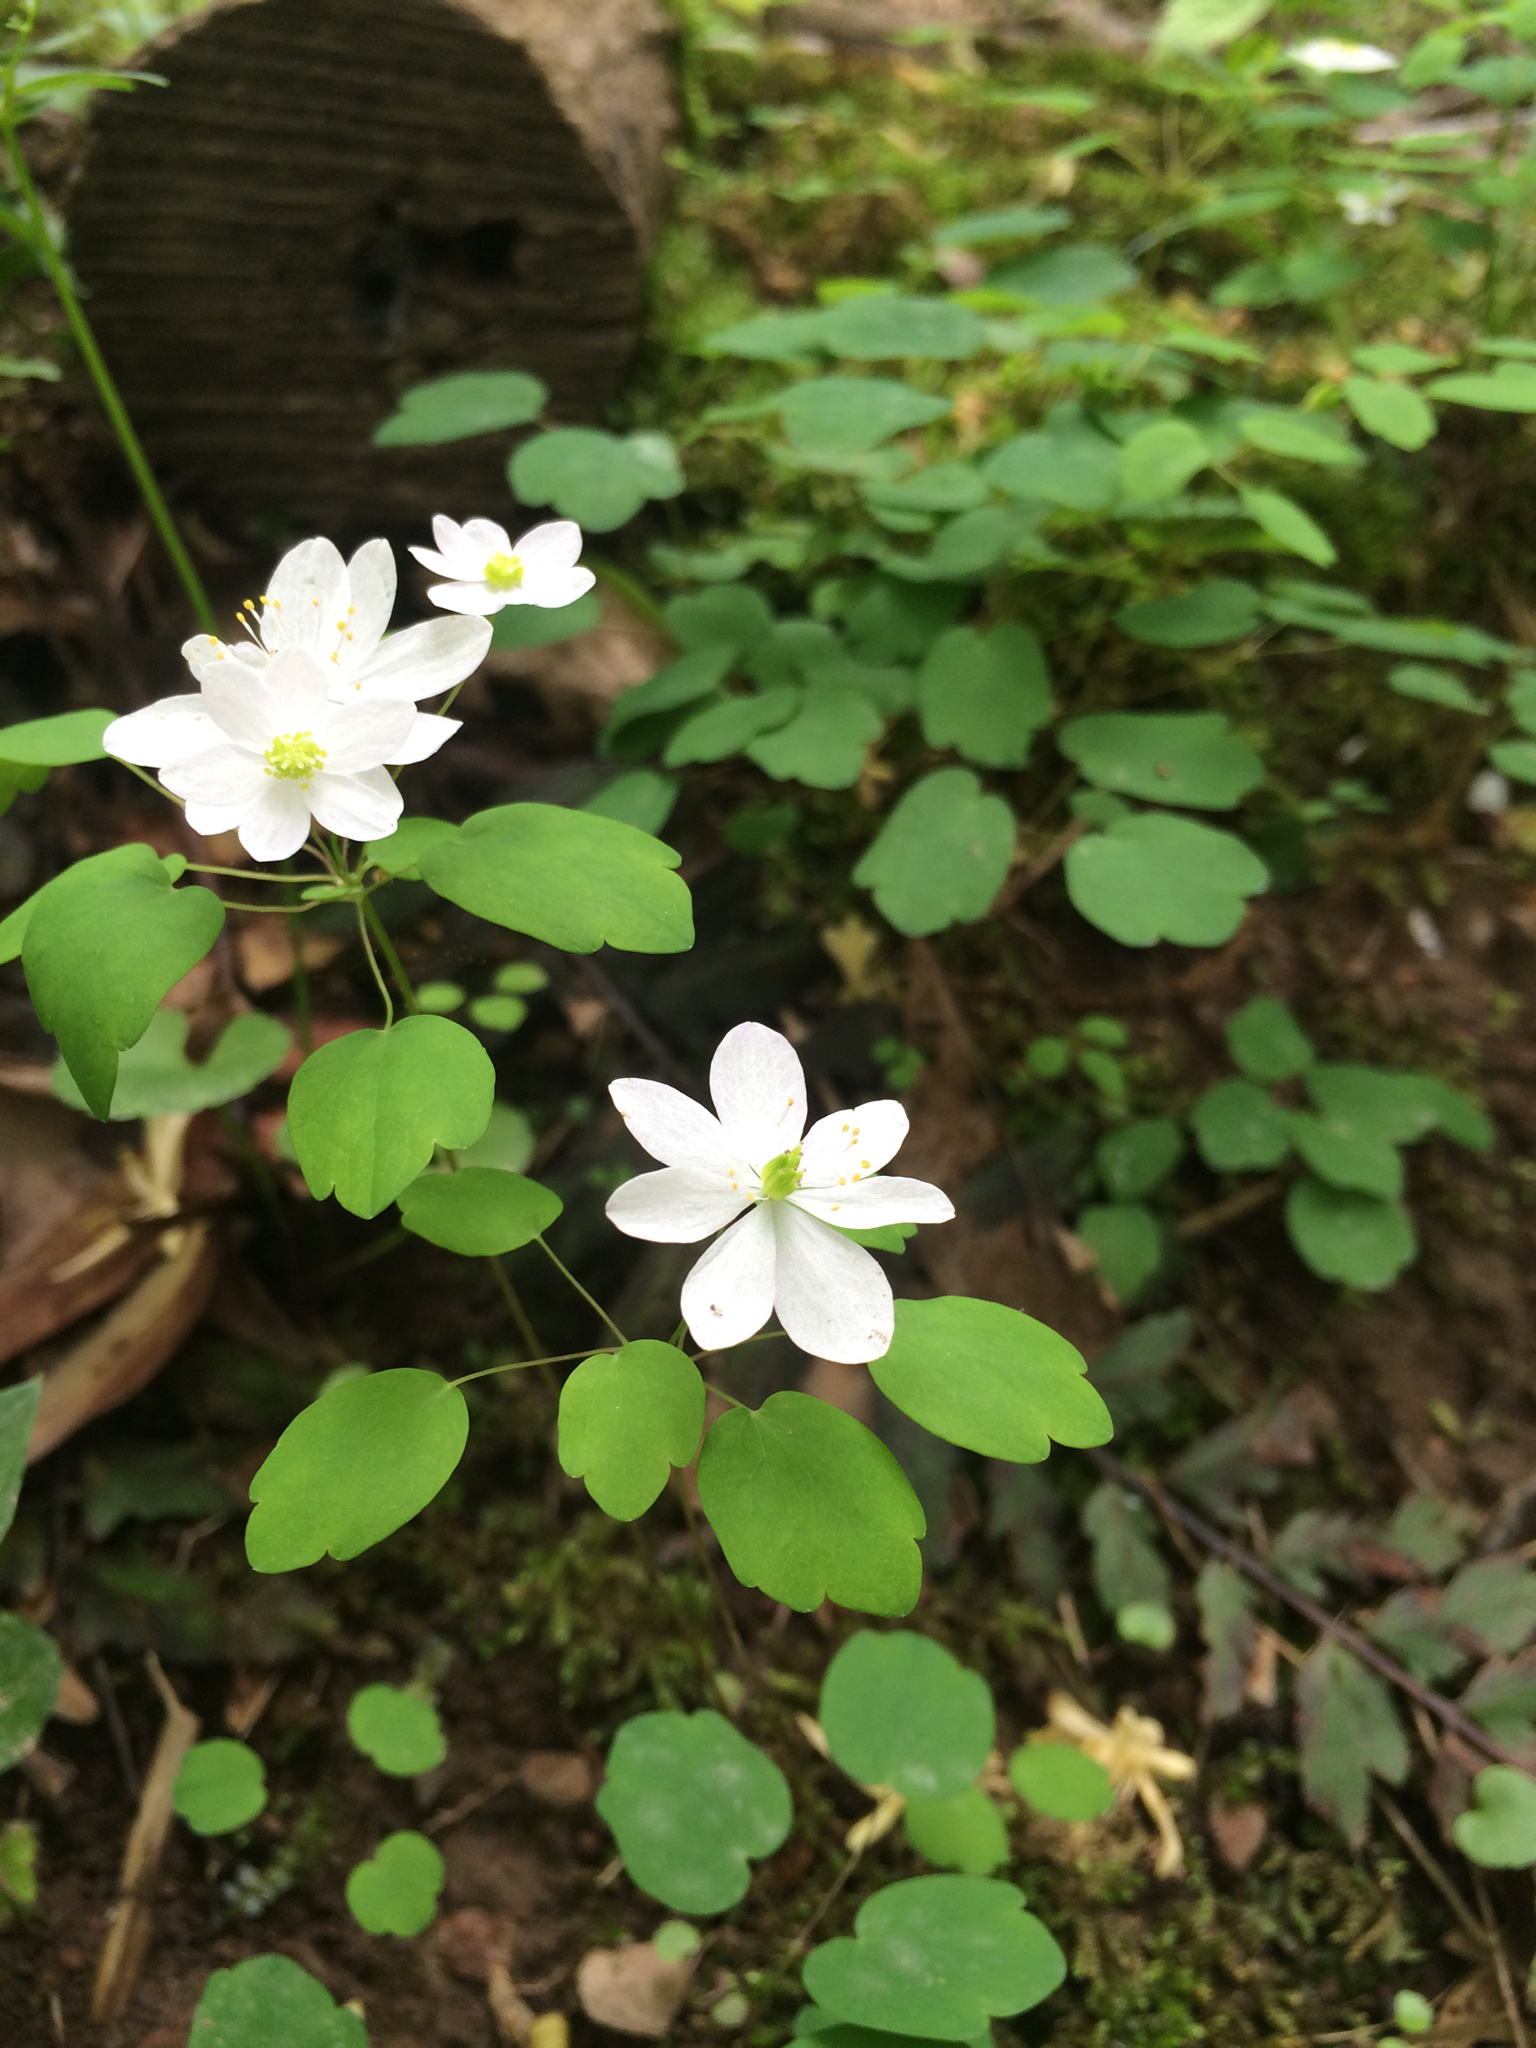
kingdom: Plantae
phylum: Tracheophyta
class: Magnoliopsida
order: Ranunculales
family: Ranunculaceae
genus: Thalictrum
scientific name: Thalictrum thalictroides
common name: Rue-anemone
